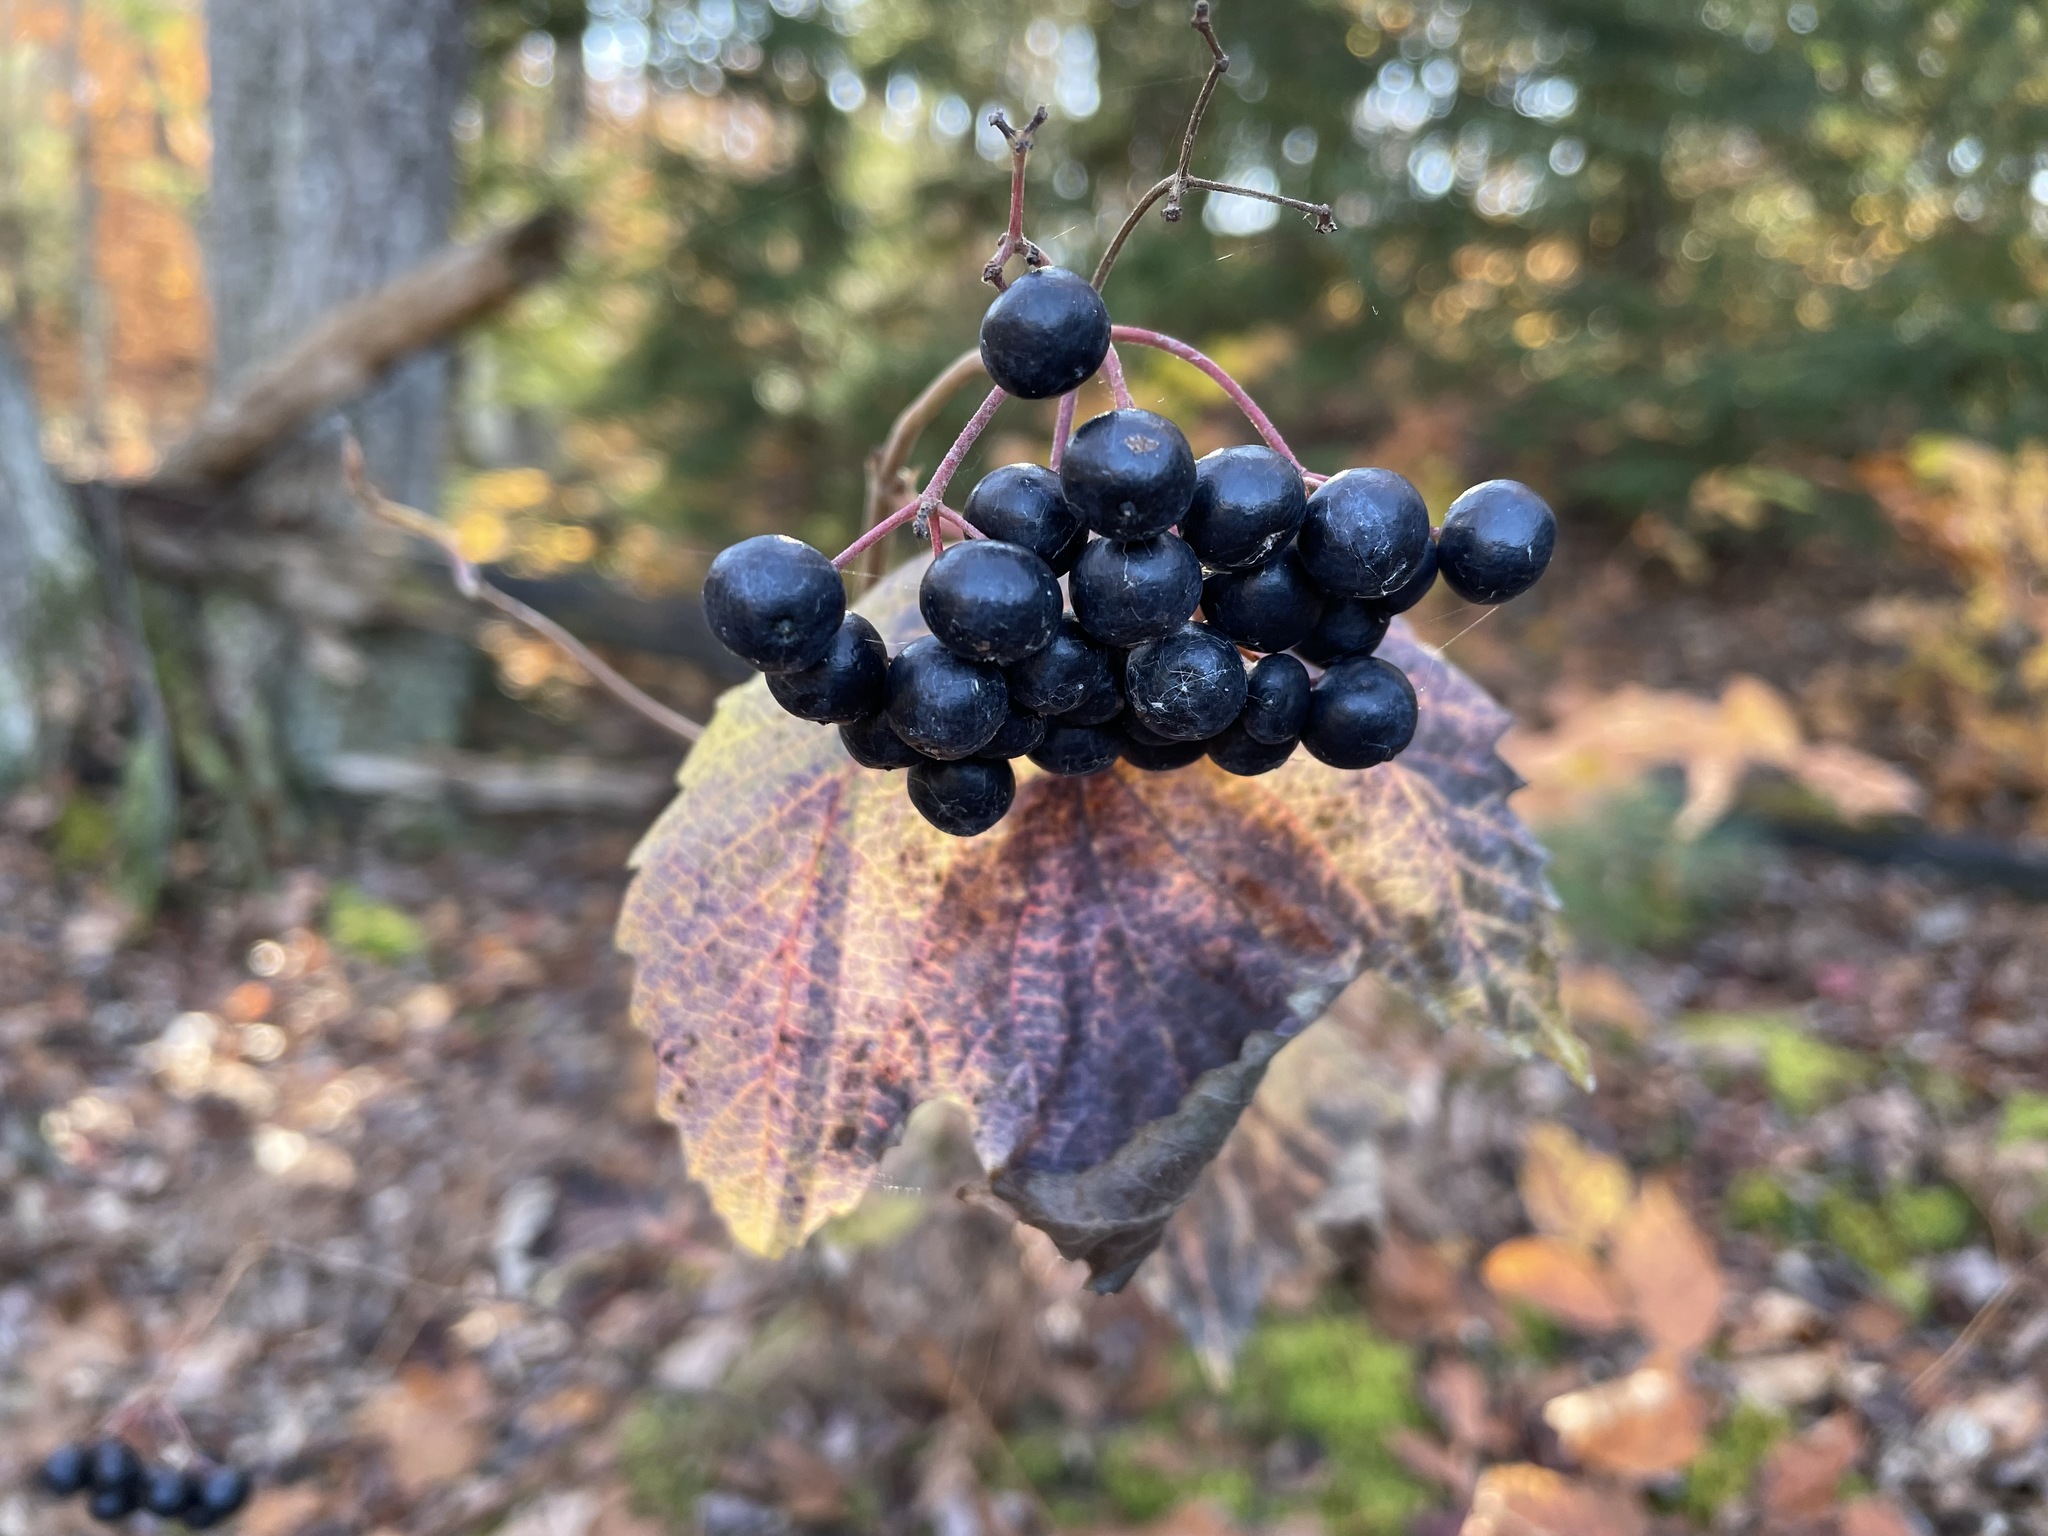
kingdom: Plantae
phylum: Tracheophyta
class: Magnoliopsida
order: Dipsacales
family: Viburnaceae
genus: Viburnum
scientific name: Viburnum acerifolium
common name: Dockmackie
